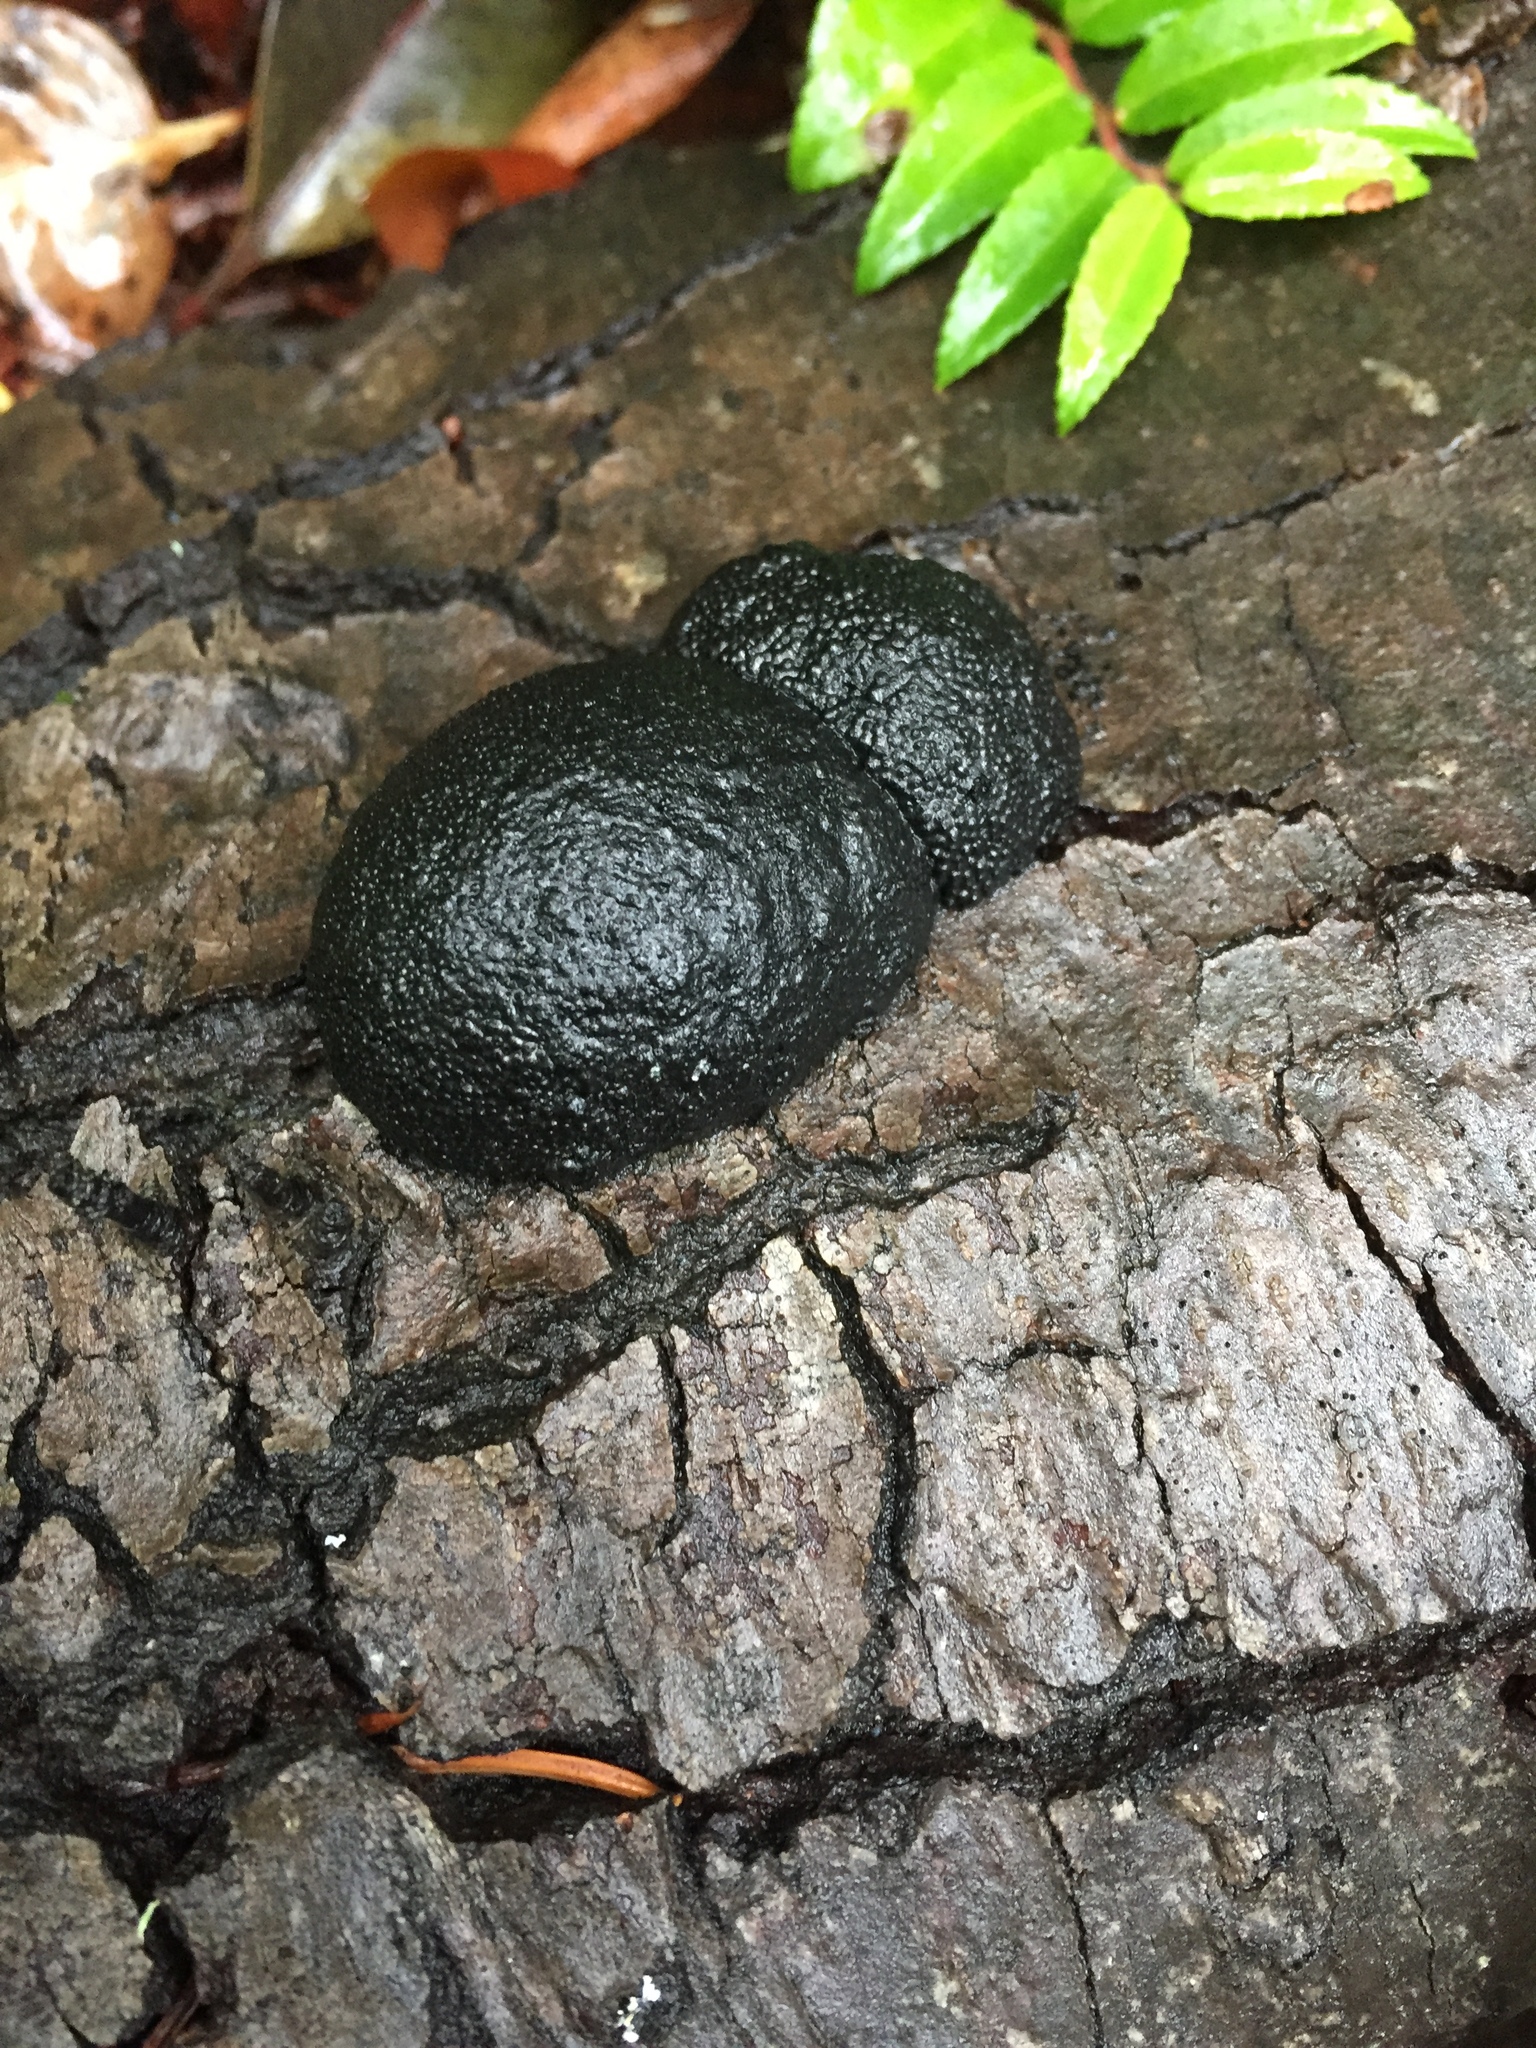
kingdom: Fungi
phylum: Ascomycota
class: Sordariomycetes
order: Xylariales
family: Hypoxylaceae
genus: Annulohypoxylon
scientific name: Annulohypoxylon thouarsianum
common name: Cramp balls
